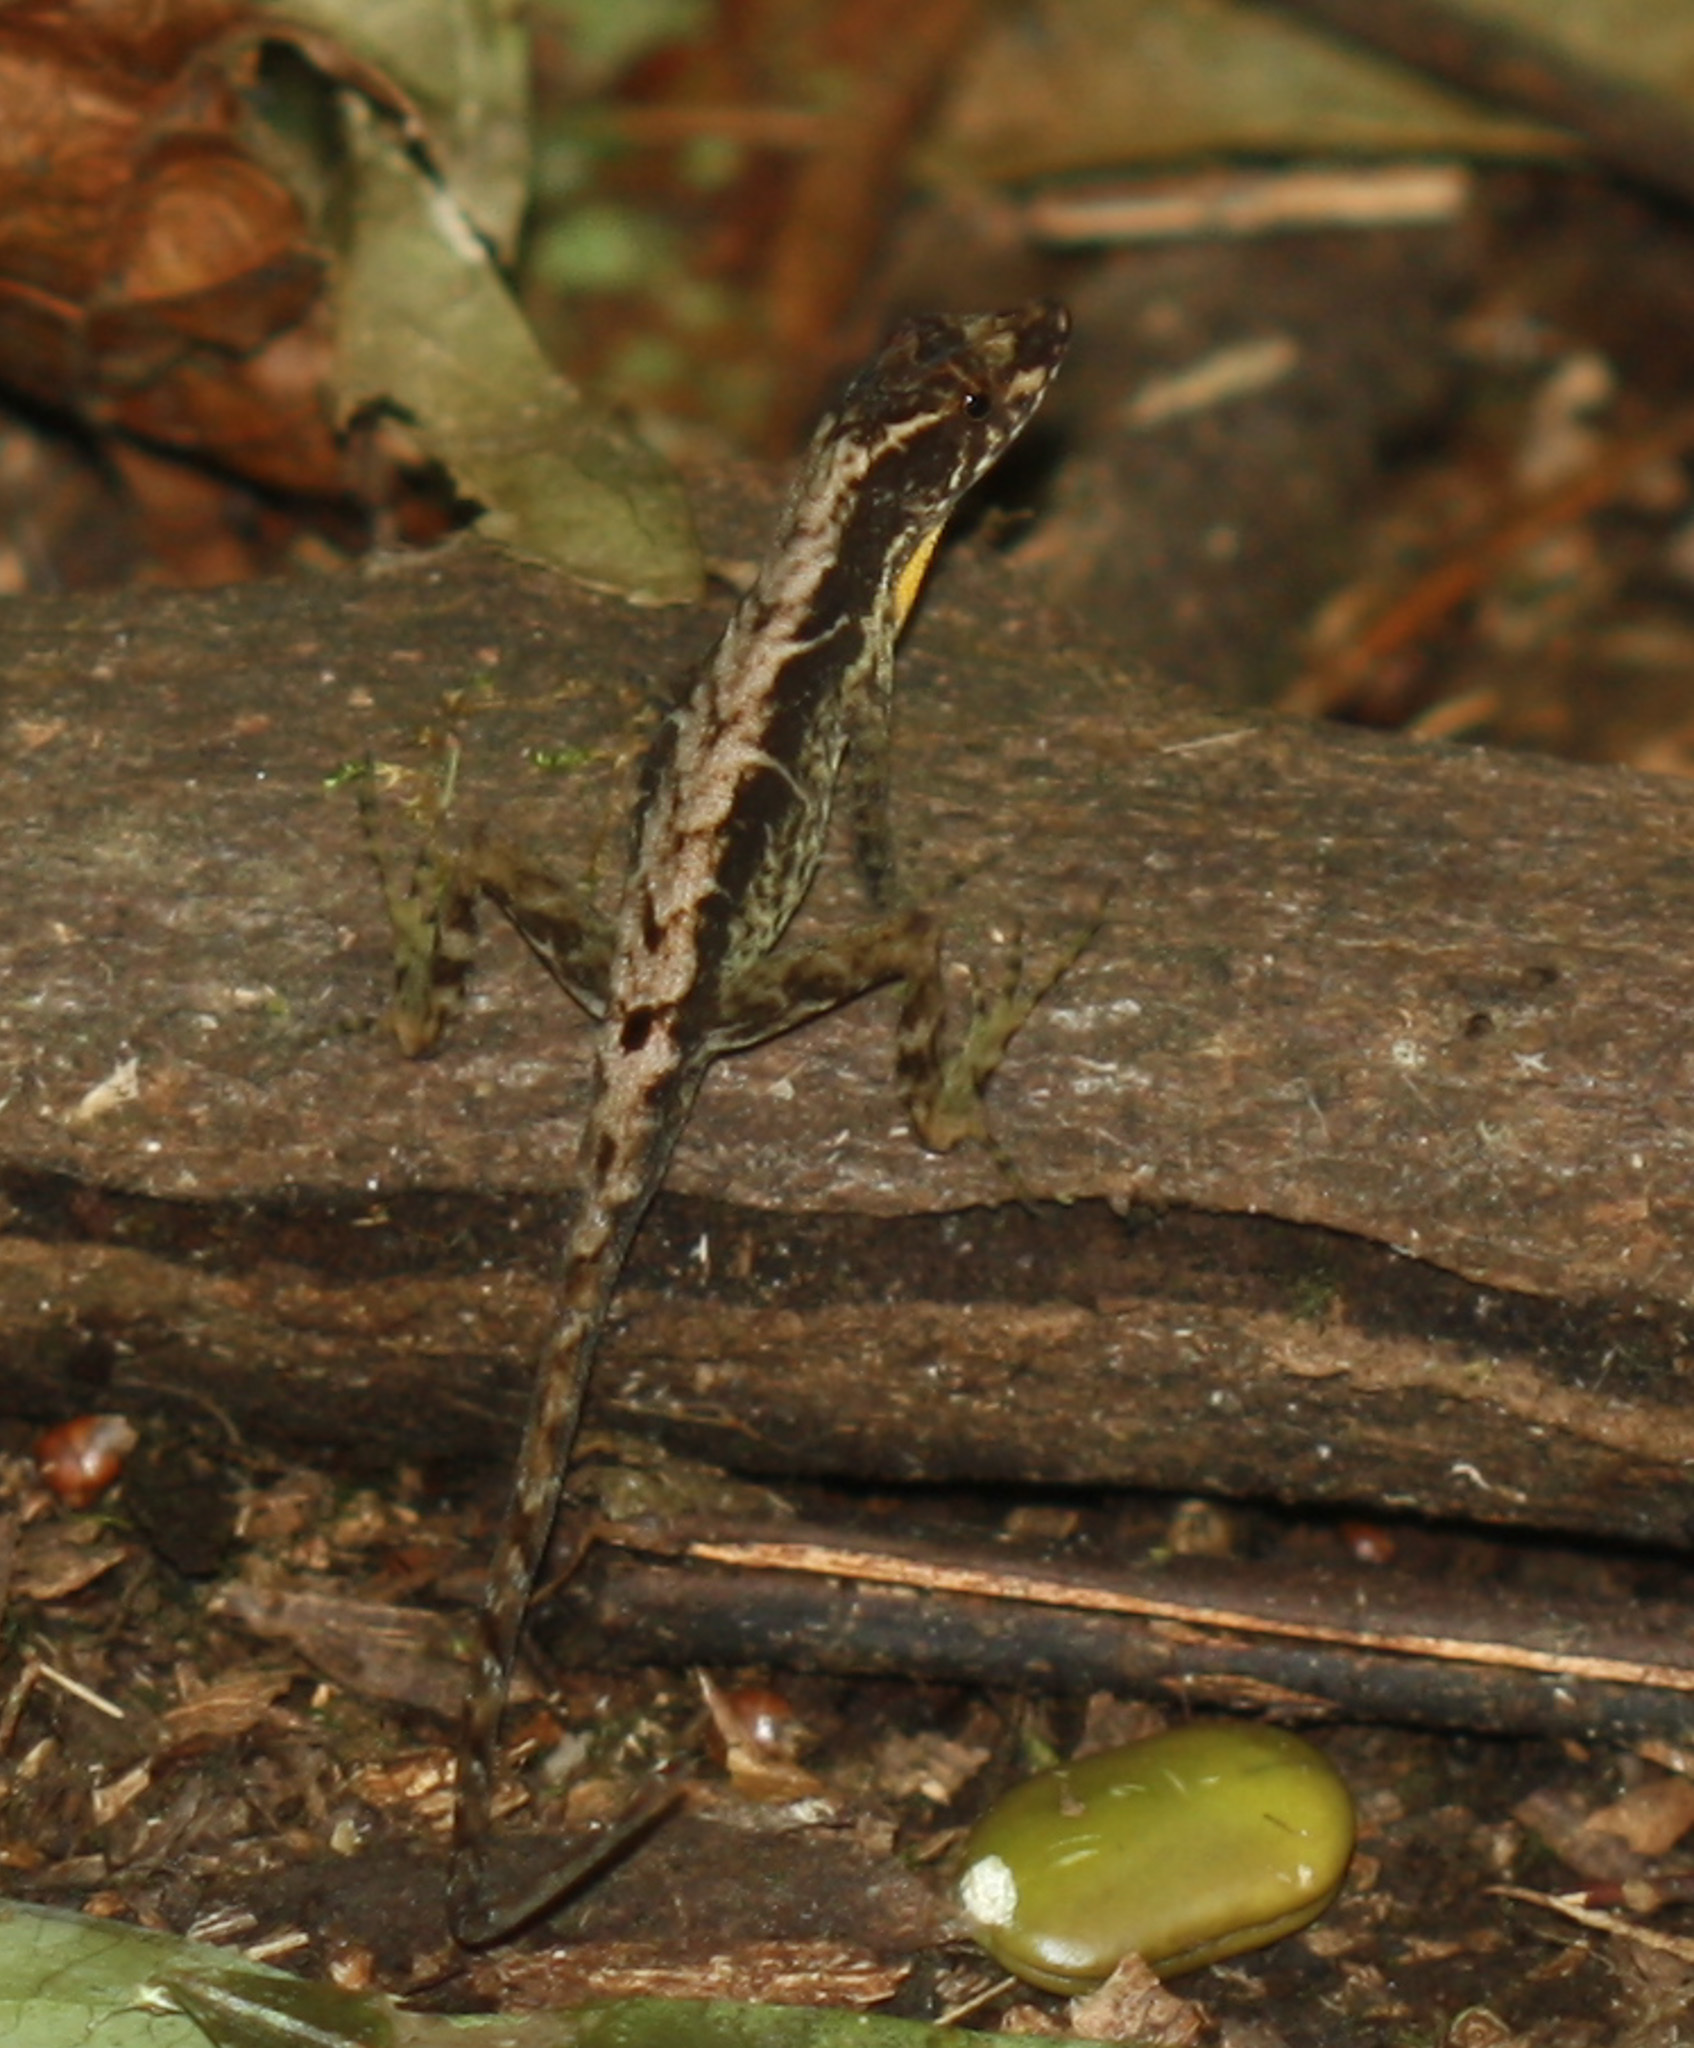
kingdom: Animalia
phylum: Chordata
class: Squamata
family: Dactyloidae
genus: Anolis
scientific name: Anolis humilis
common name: Humble anole
